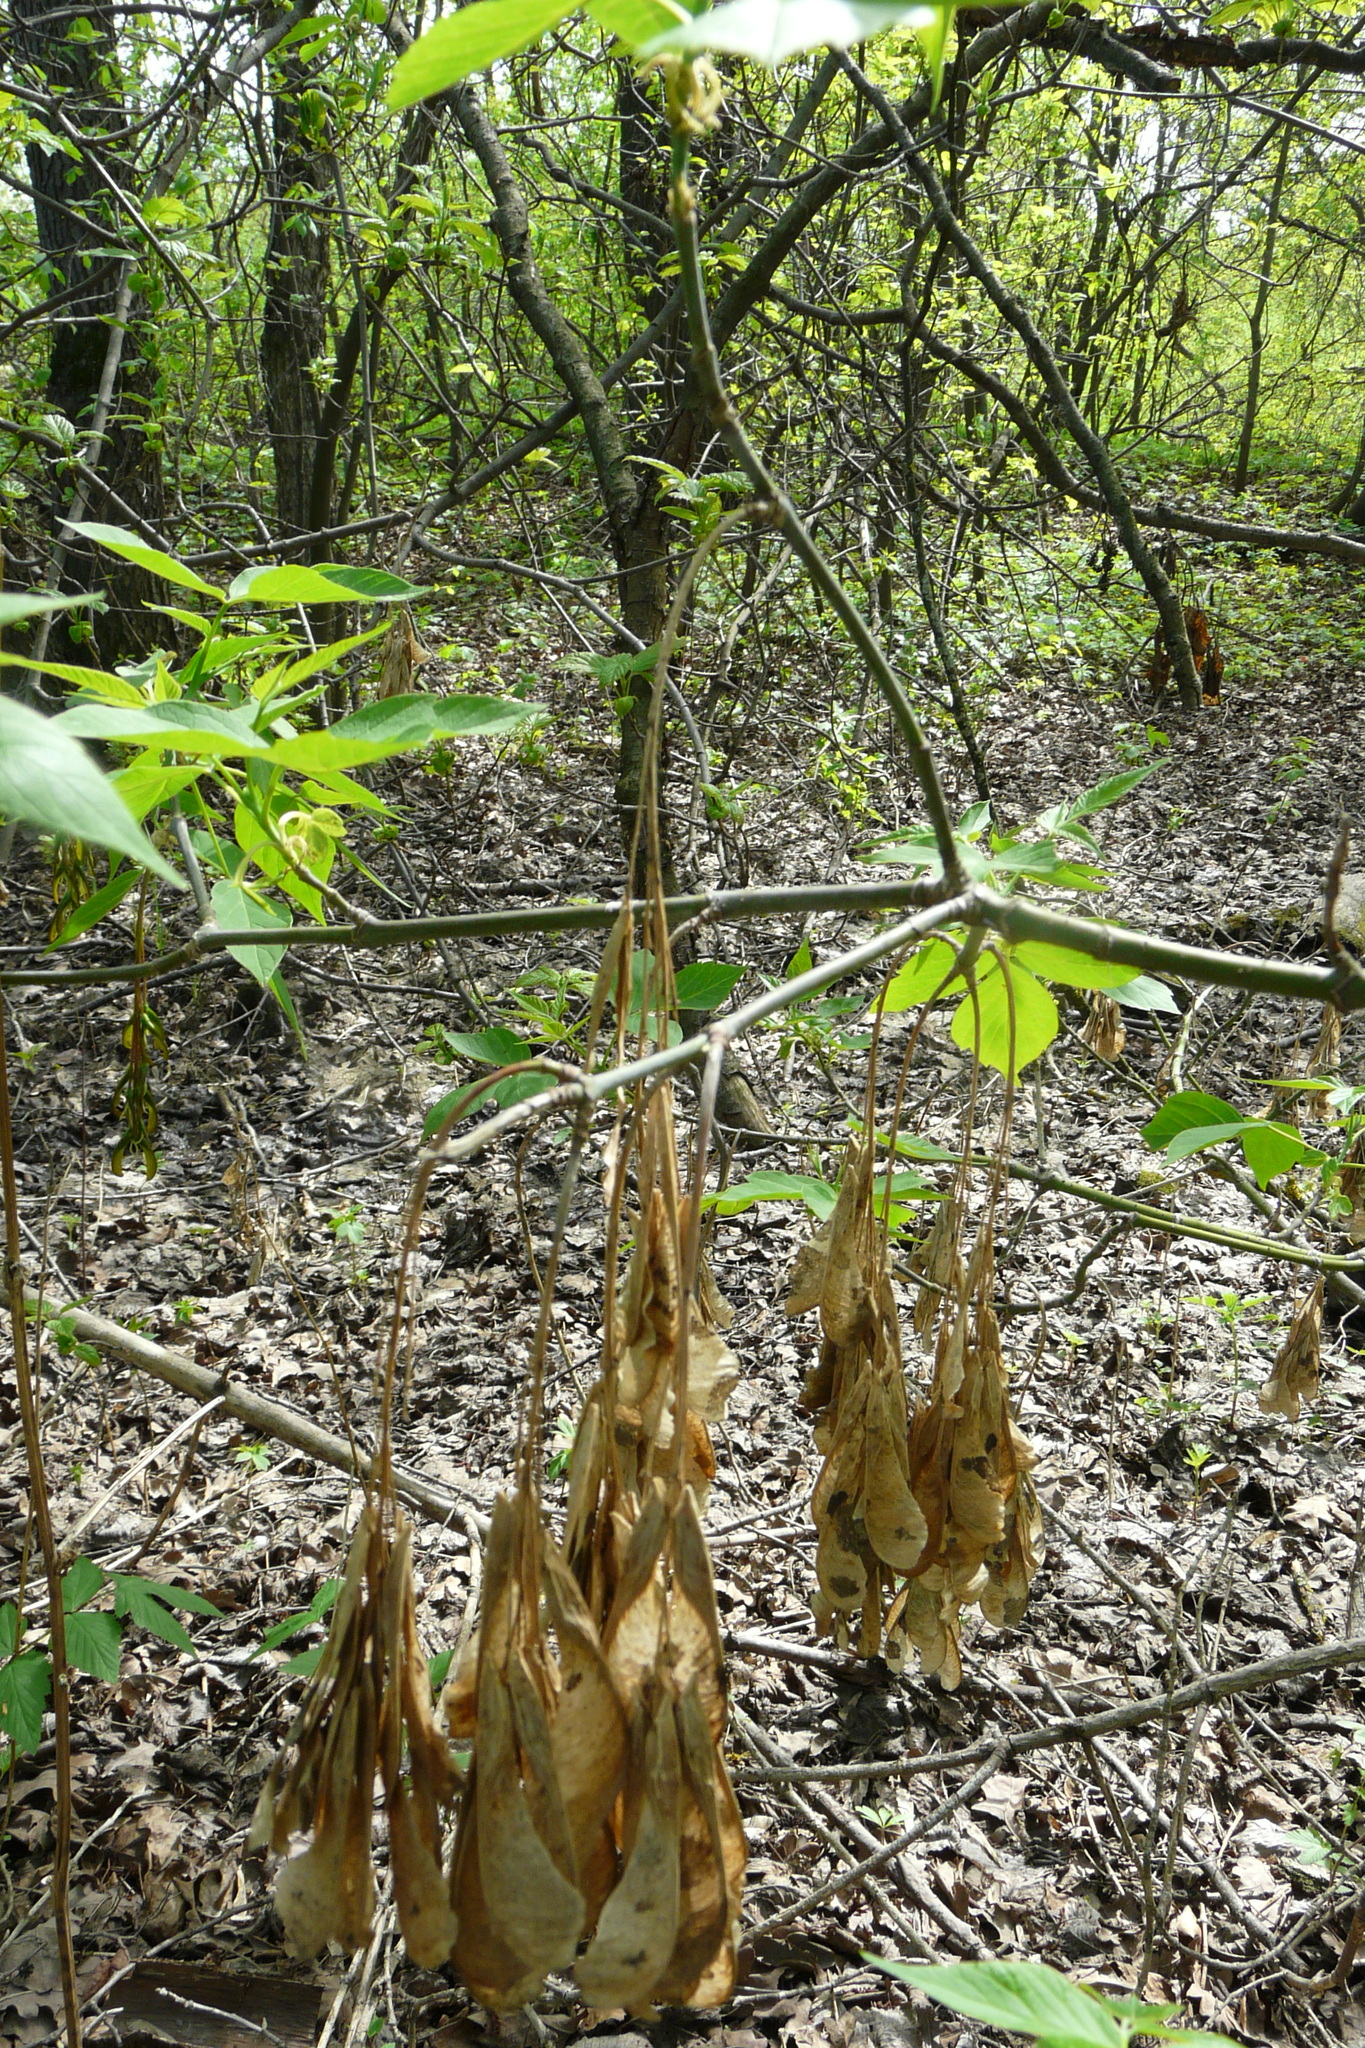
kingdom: Plantae
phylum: Tracheophyta
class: Magnoliopsida
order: Sapindales
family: Sapindaceae
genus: Acer
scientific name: Acer negundo
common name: Ashleaf maple
